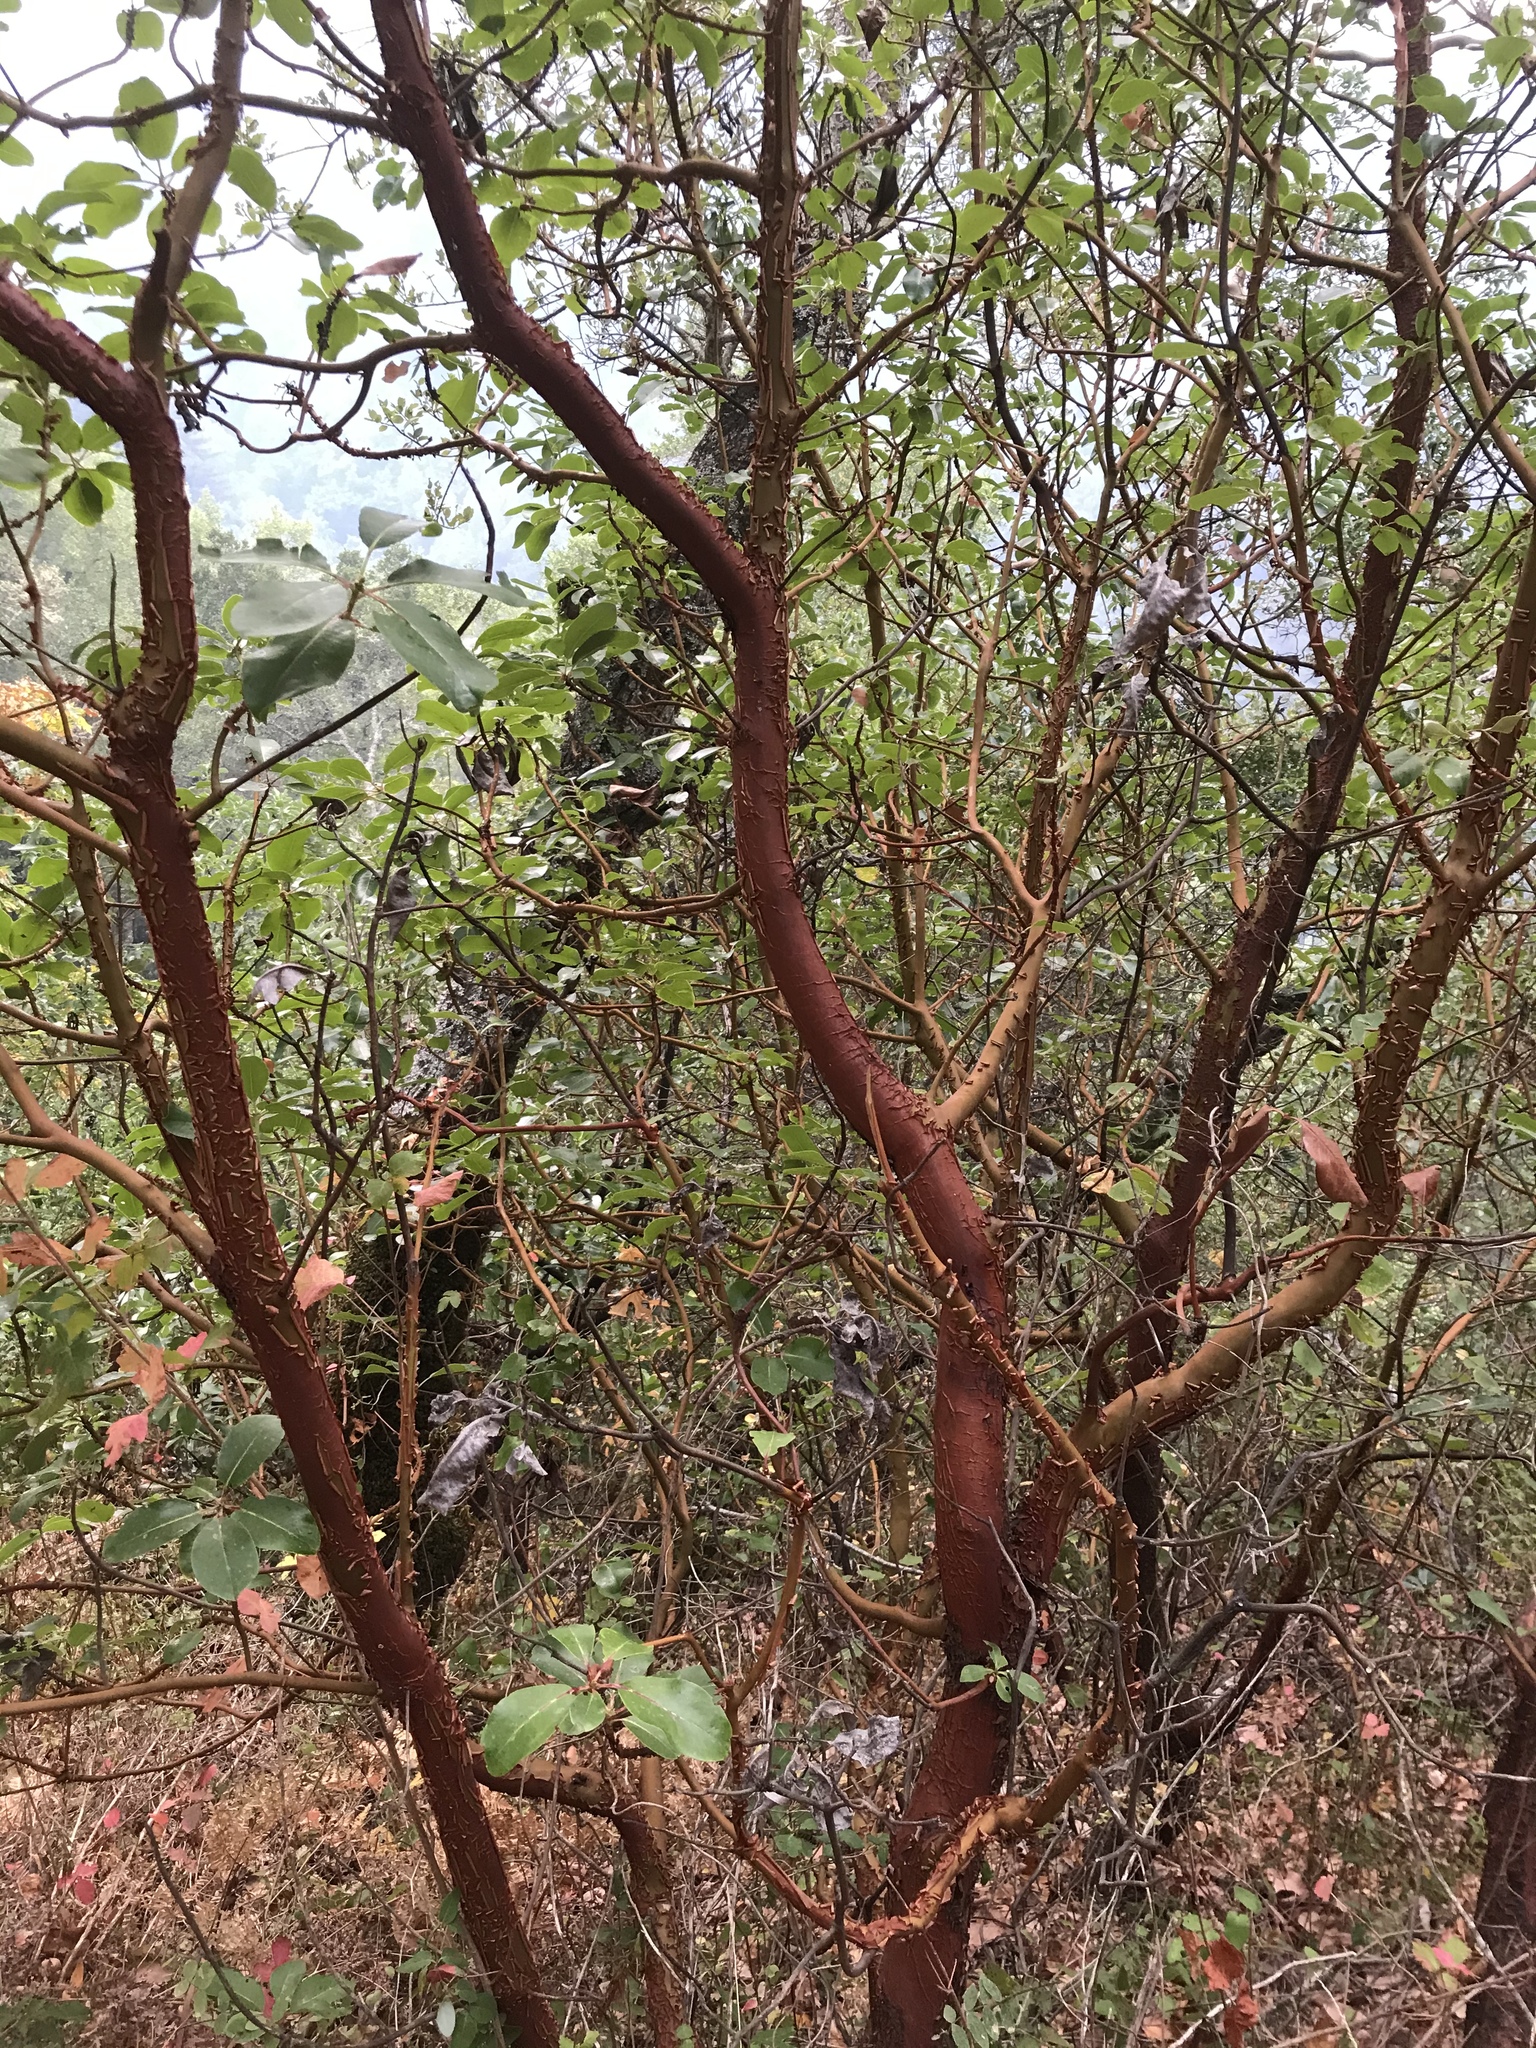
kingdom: Plantae
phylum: Tracheophyta
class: Magnoliopsida
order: Ericales
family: Ericaceae
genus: Arbutus
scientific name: Arbutus menziesii
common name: Pacific madrone
